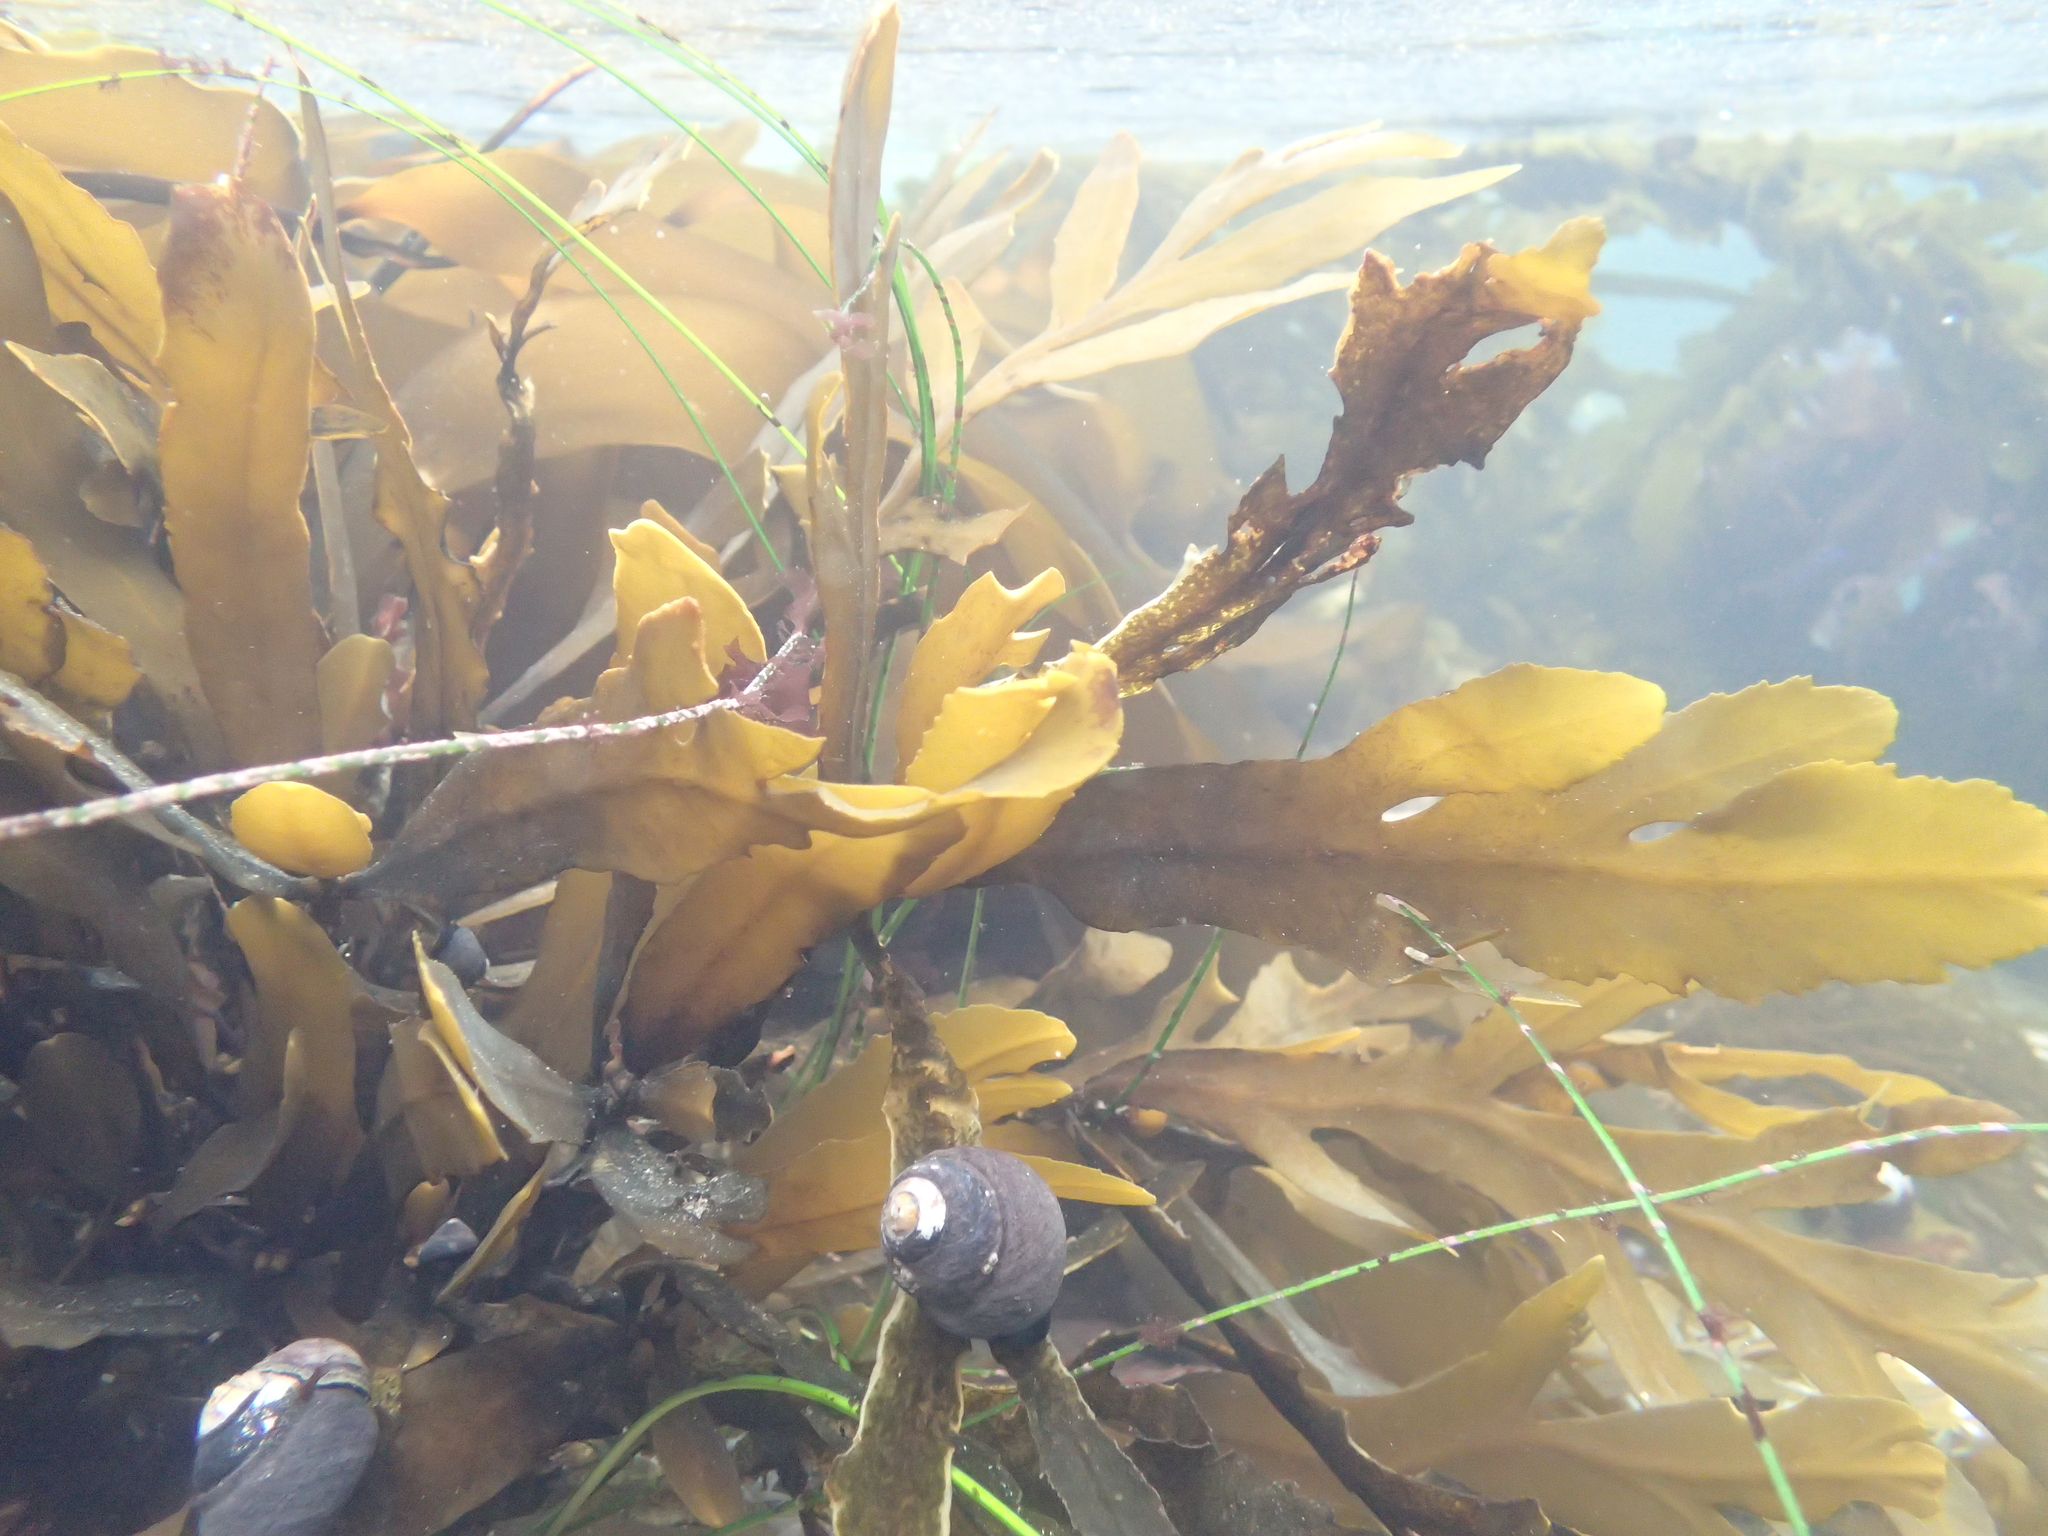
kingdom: Chromista
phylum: Ochrophyta
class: Phaeophyceae
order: Fucales
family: Sargassaceae
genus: Stephanocystis
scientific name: Stephanocystis
